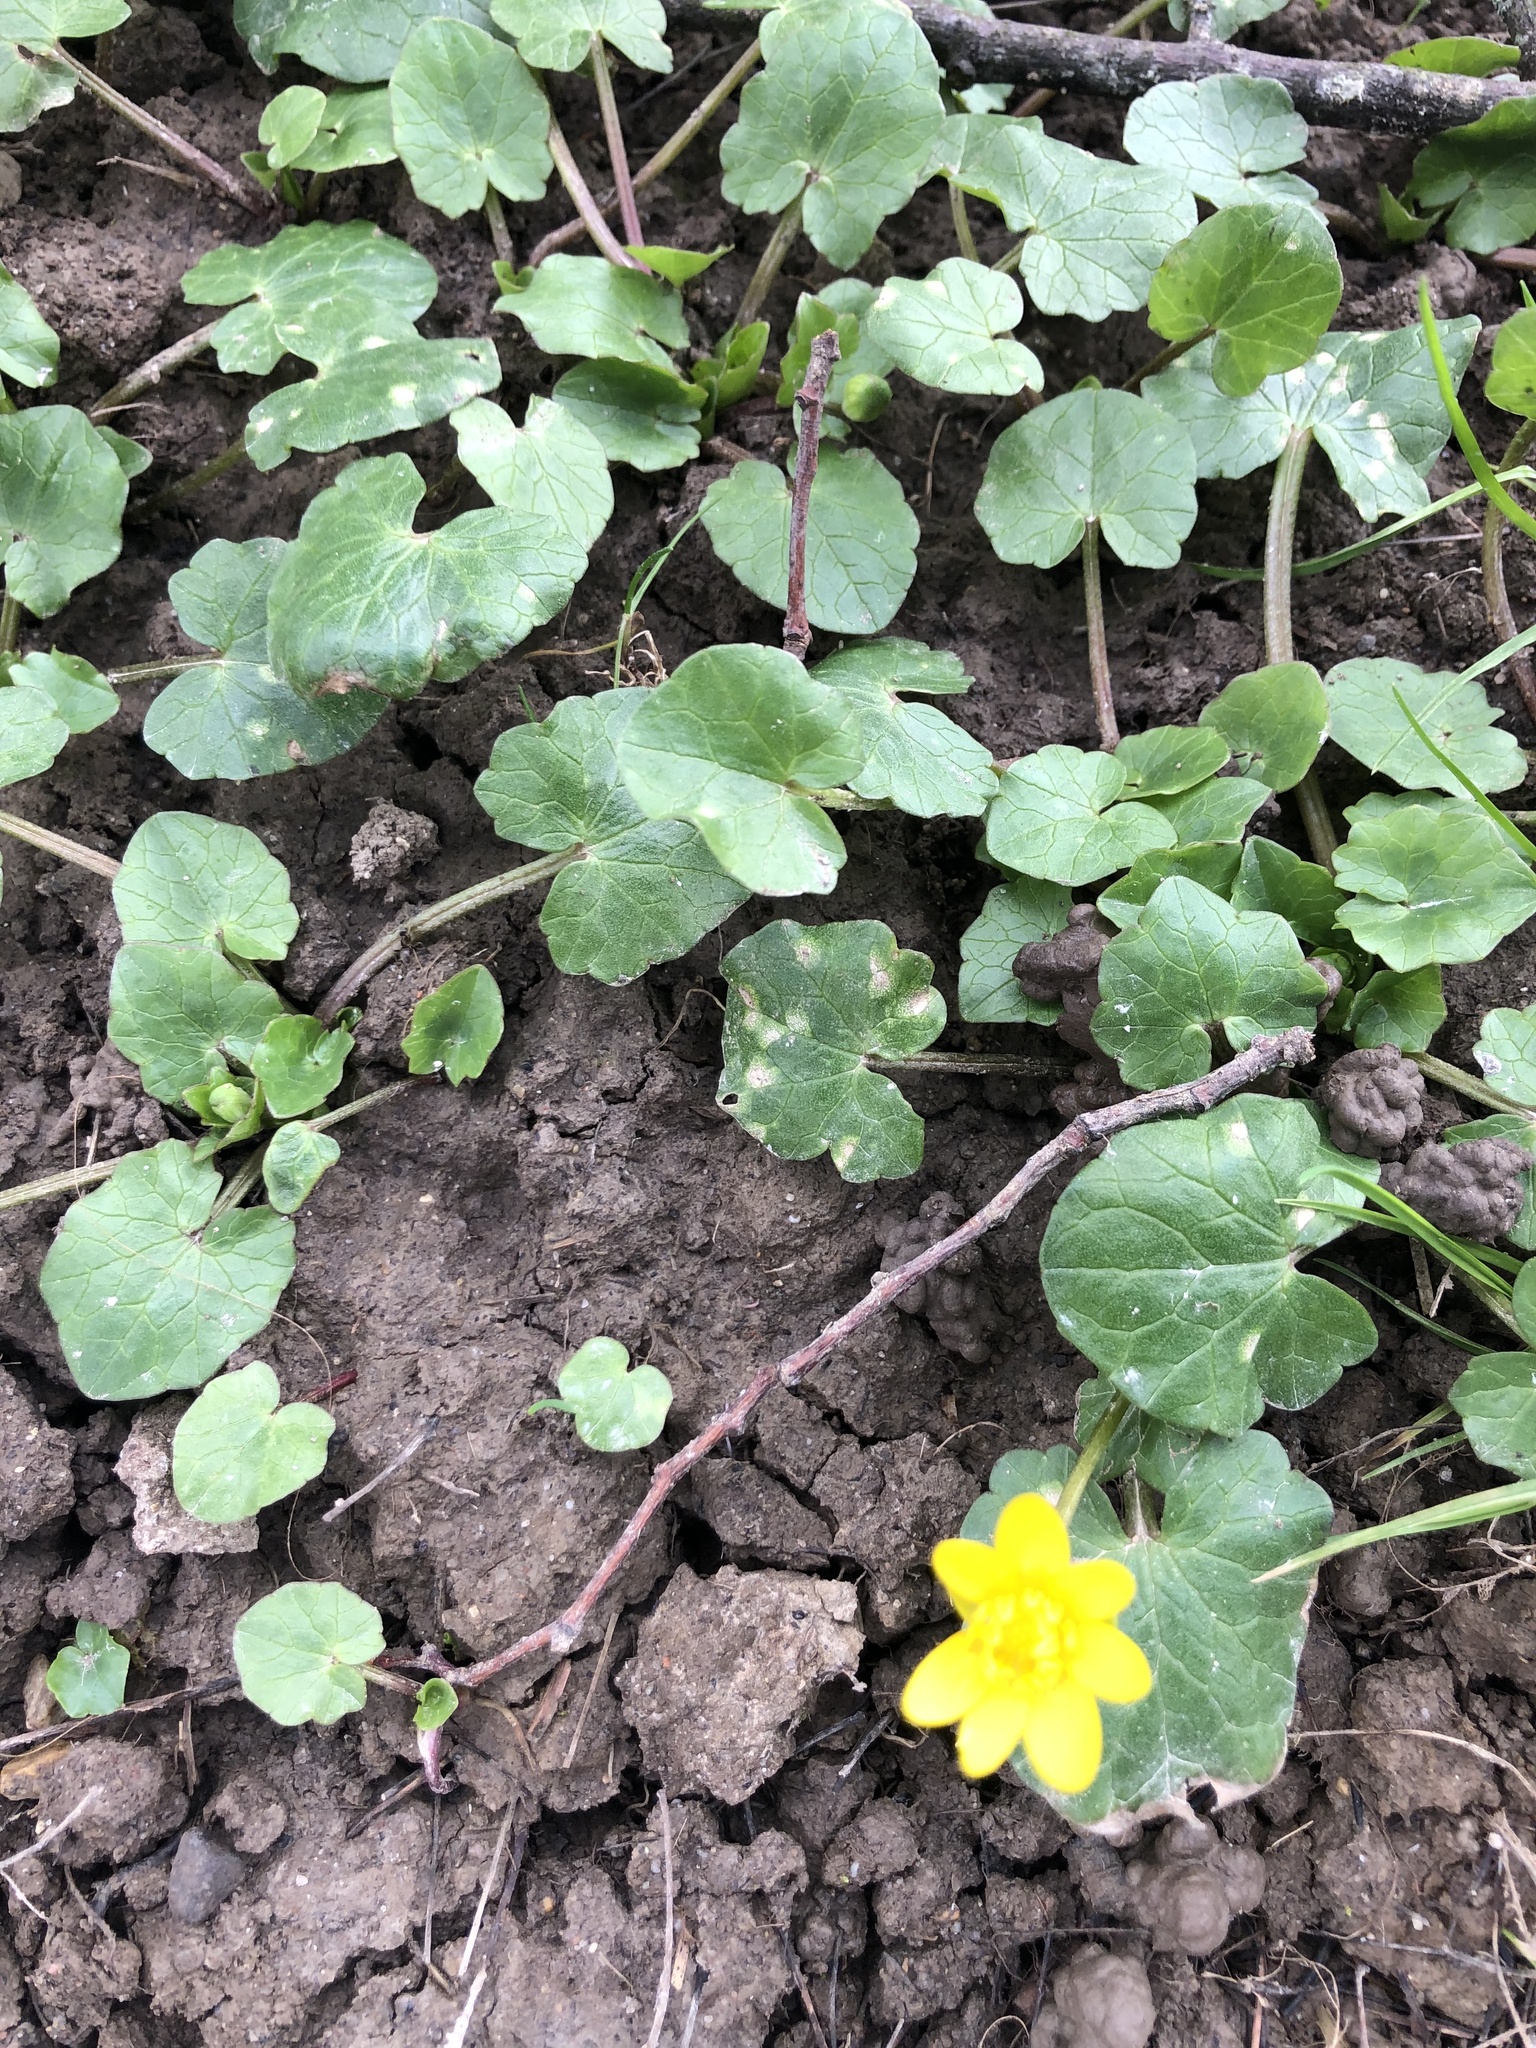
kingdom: Plantae
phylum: Tracheophyta
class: Magnoliopsida
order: Ranunculales
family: Ranunculaceae
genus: Ficaria
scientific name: Ficaria verna
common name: Lesser celandine
